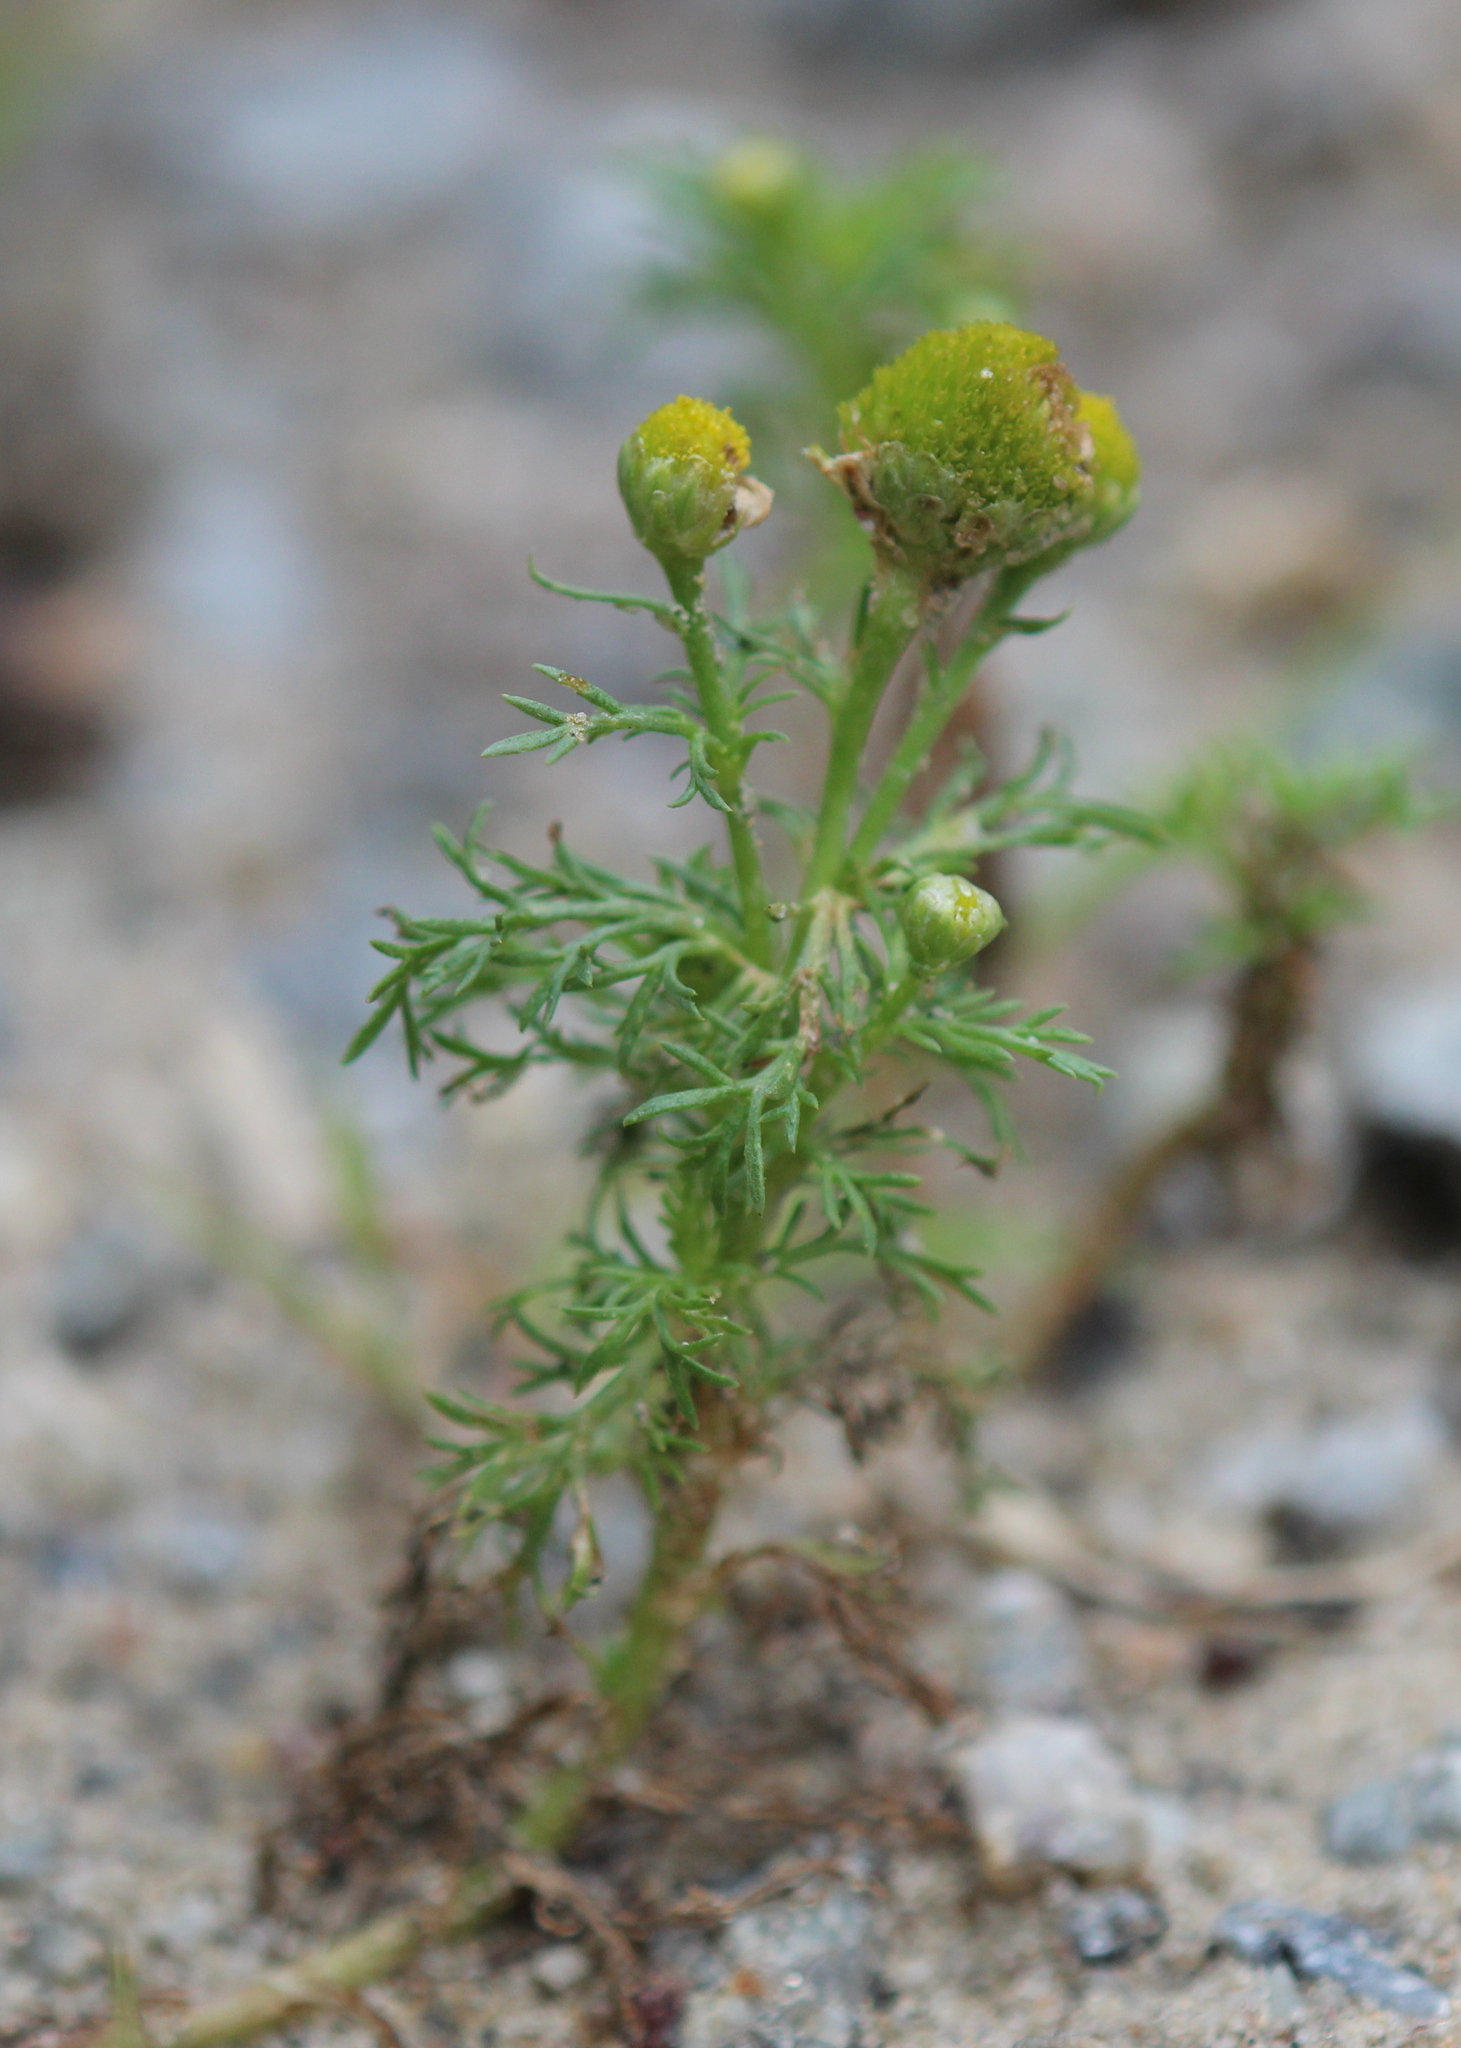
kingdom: Plantae
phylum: Tracheophyta
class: Magnoliopsida
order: Asterales
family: Asteraceae
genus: Matricaria
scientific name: Matricaria discoidea
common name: Disc mayweed
